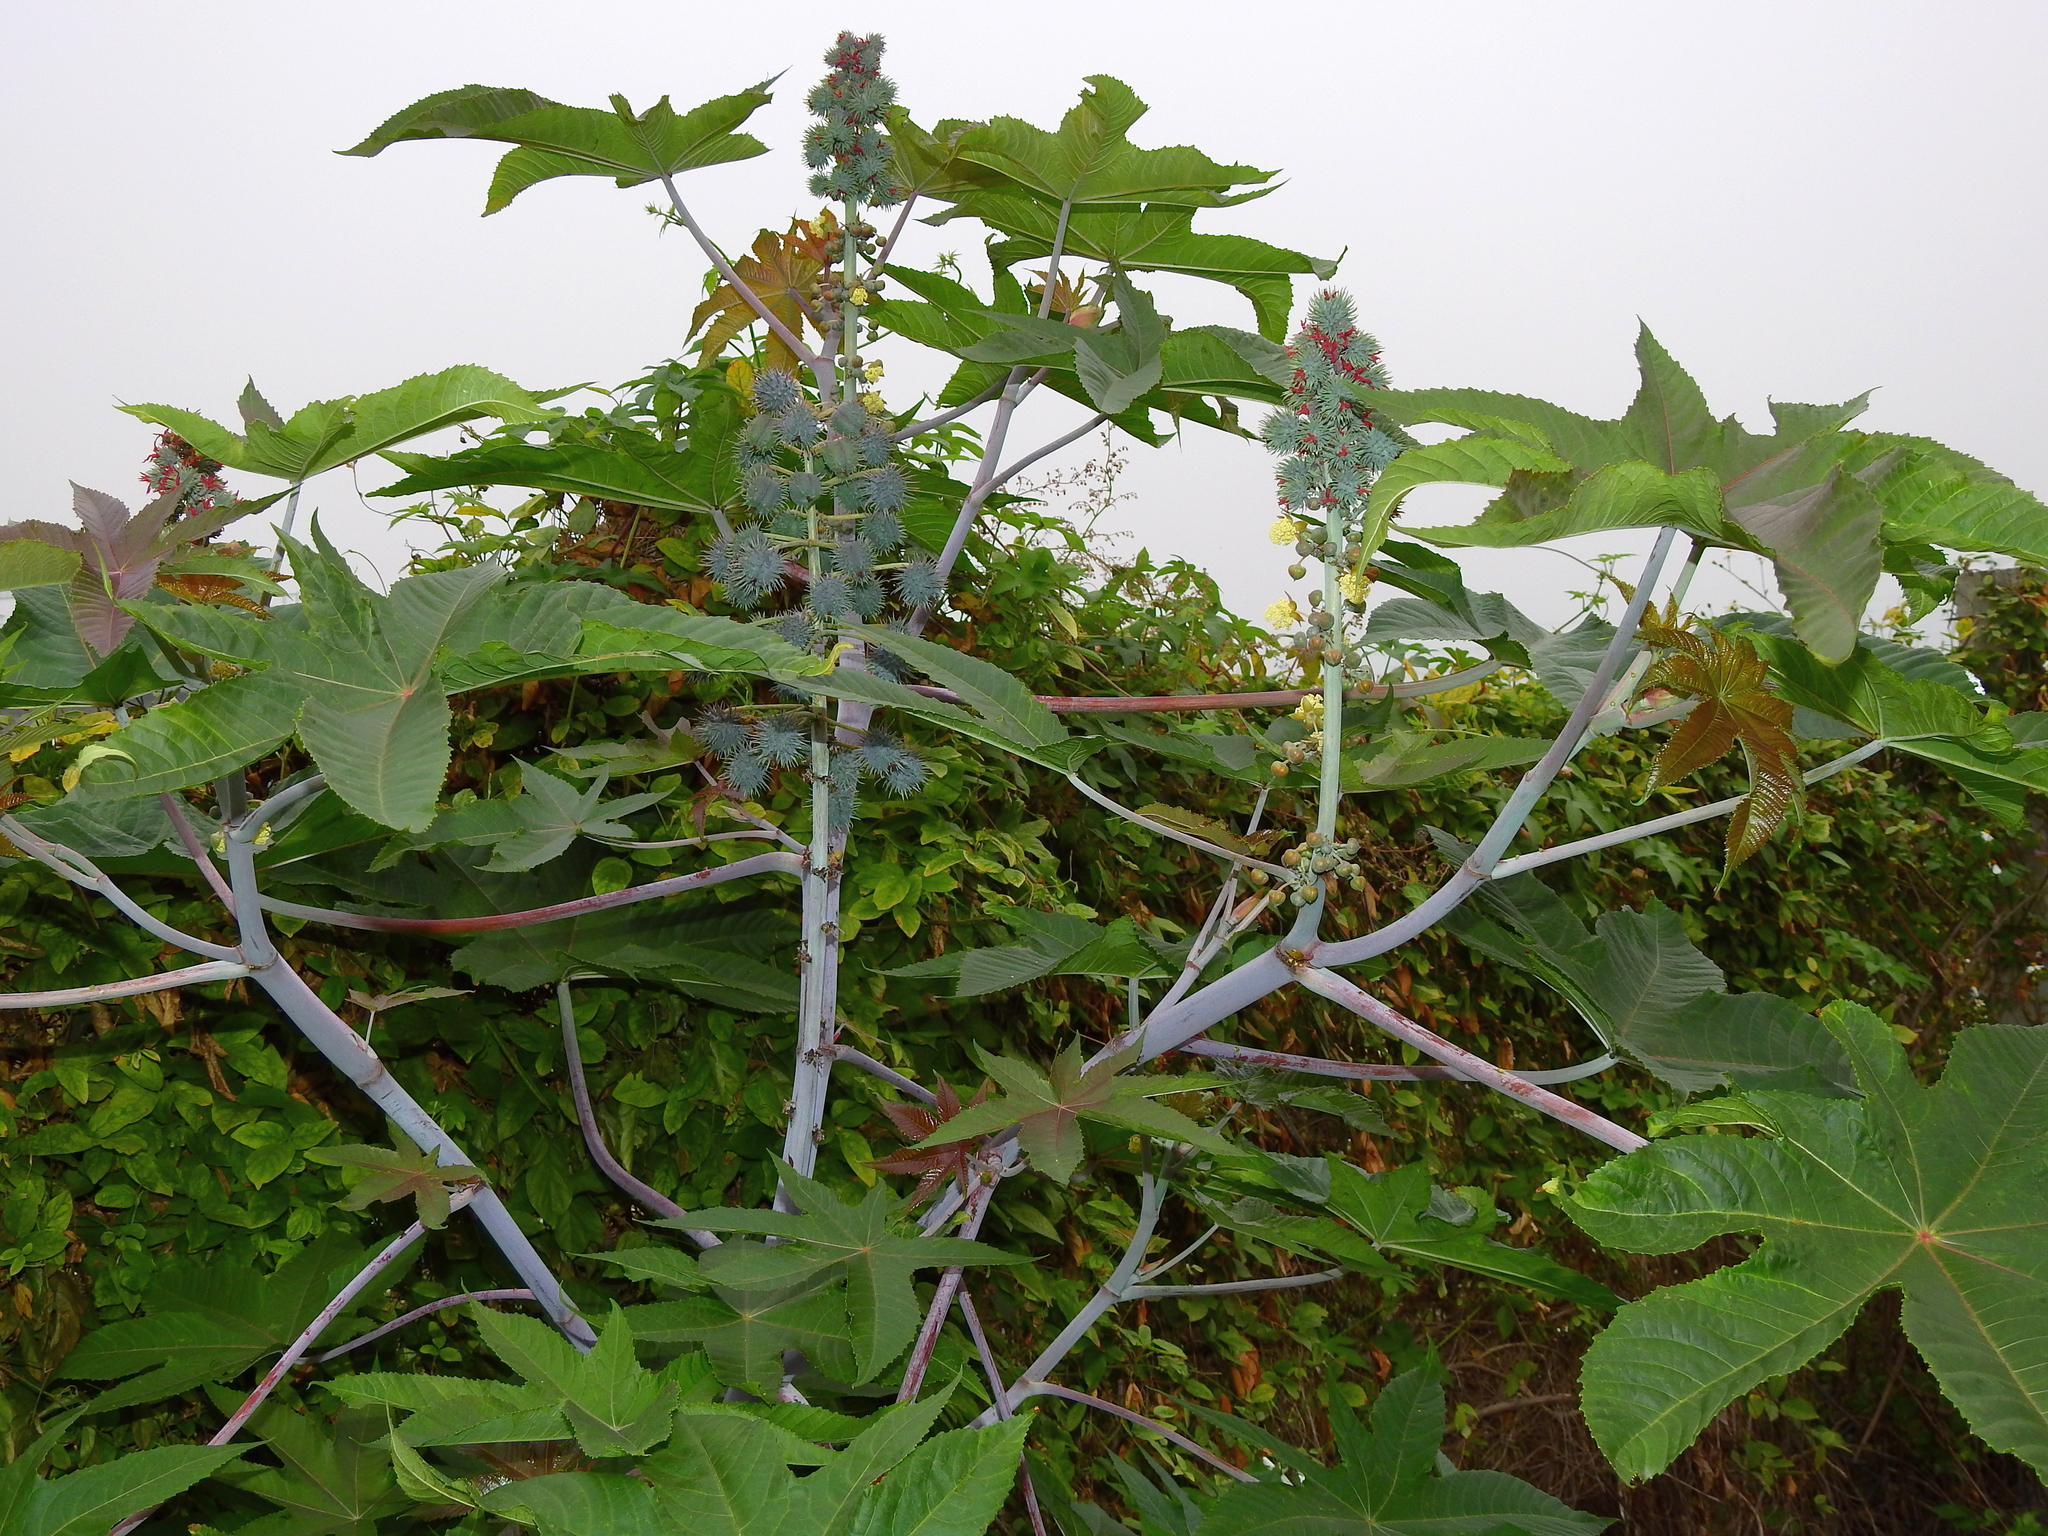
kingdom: Plantae
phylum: Tracheophyta
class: Magnoliopsida
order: Malpighiales
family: Euphorbiaceae
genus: Ricinus
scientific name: Ricinus communis
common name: Castor-oil-plant
